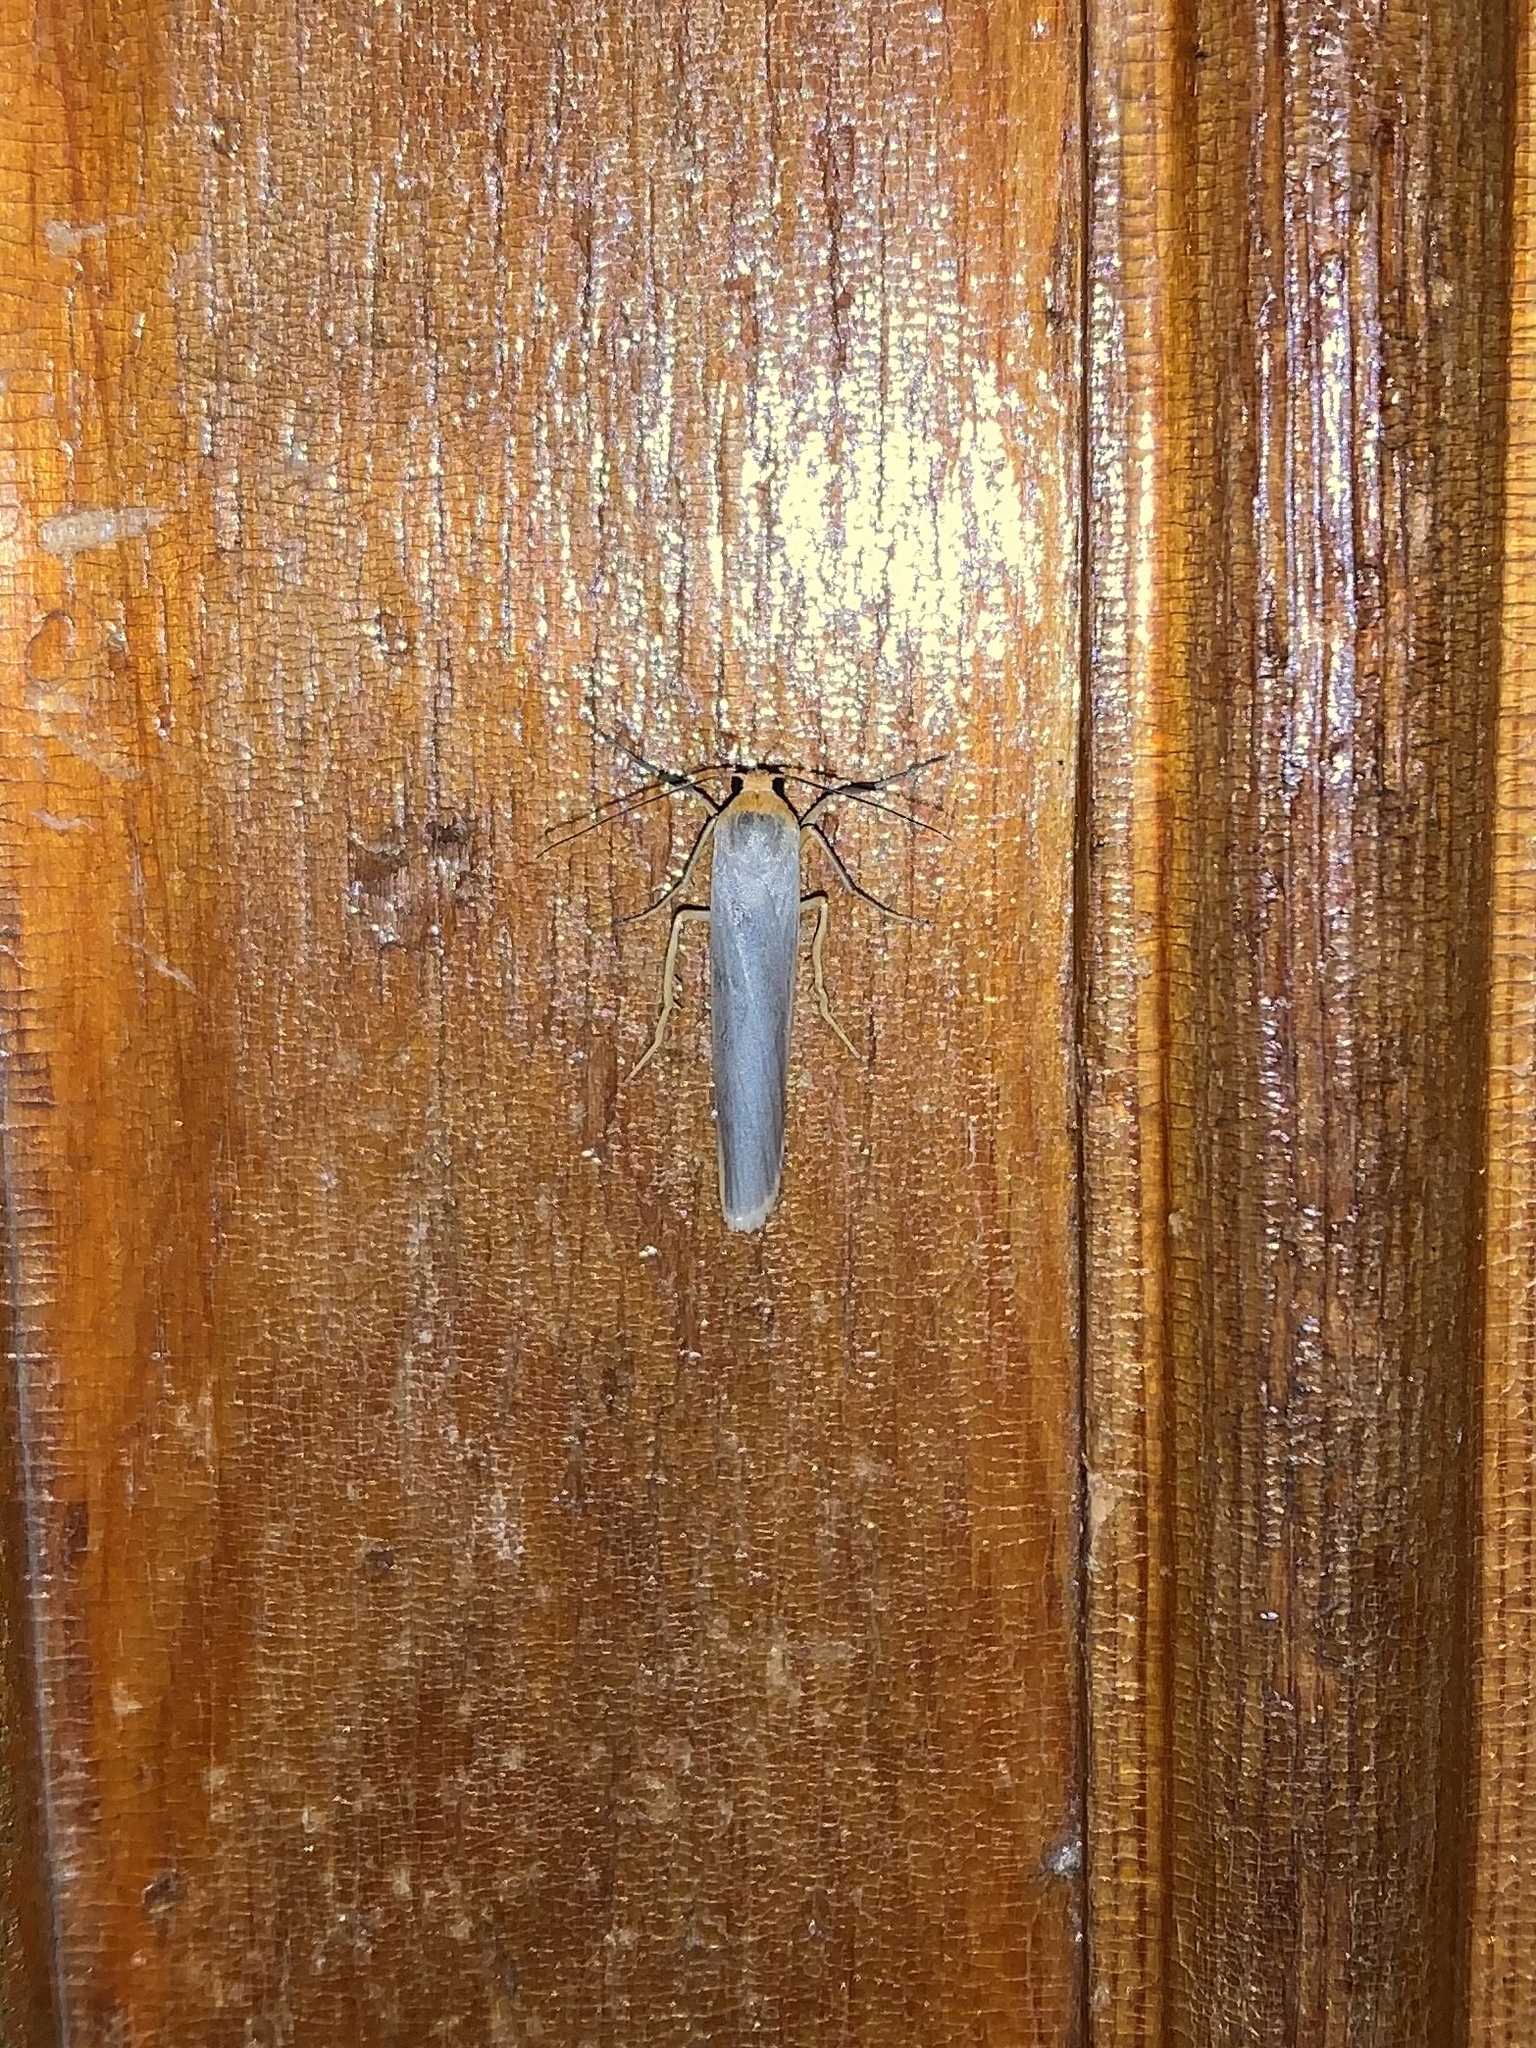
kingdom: Animalia
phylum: Arthropoda
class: Insecta
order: Lepidoptera
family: Erebidae
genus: Eilema
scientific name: Eilema caniola
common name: Hoary footman
